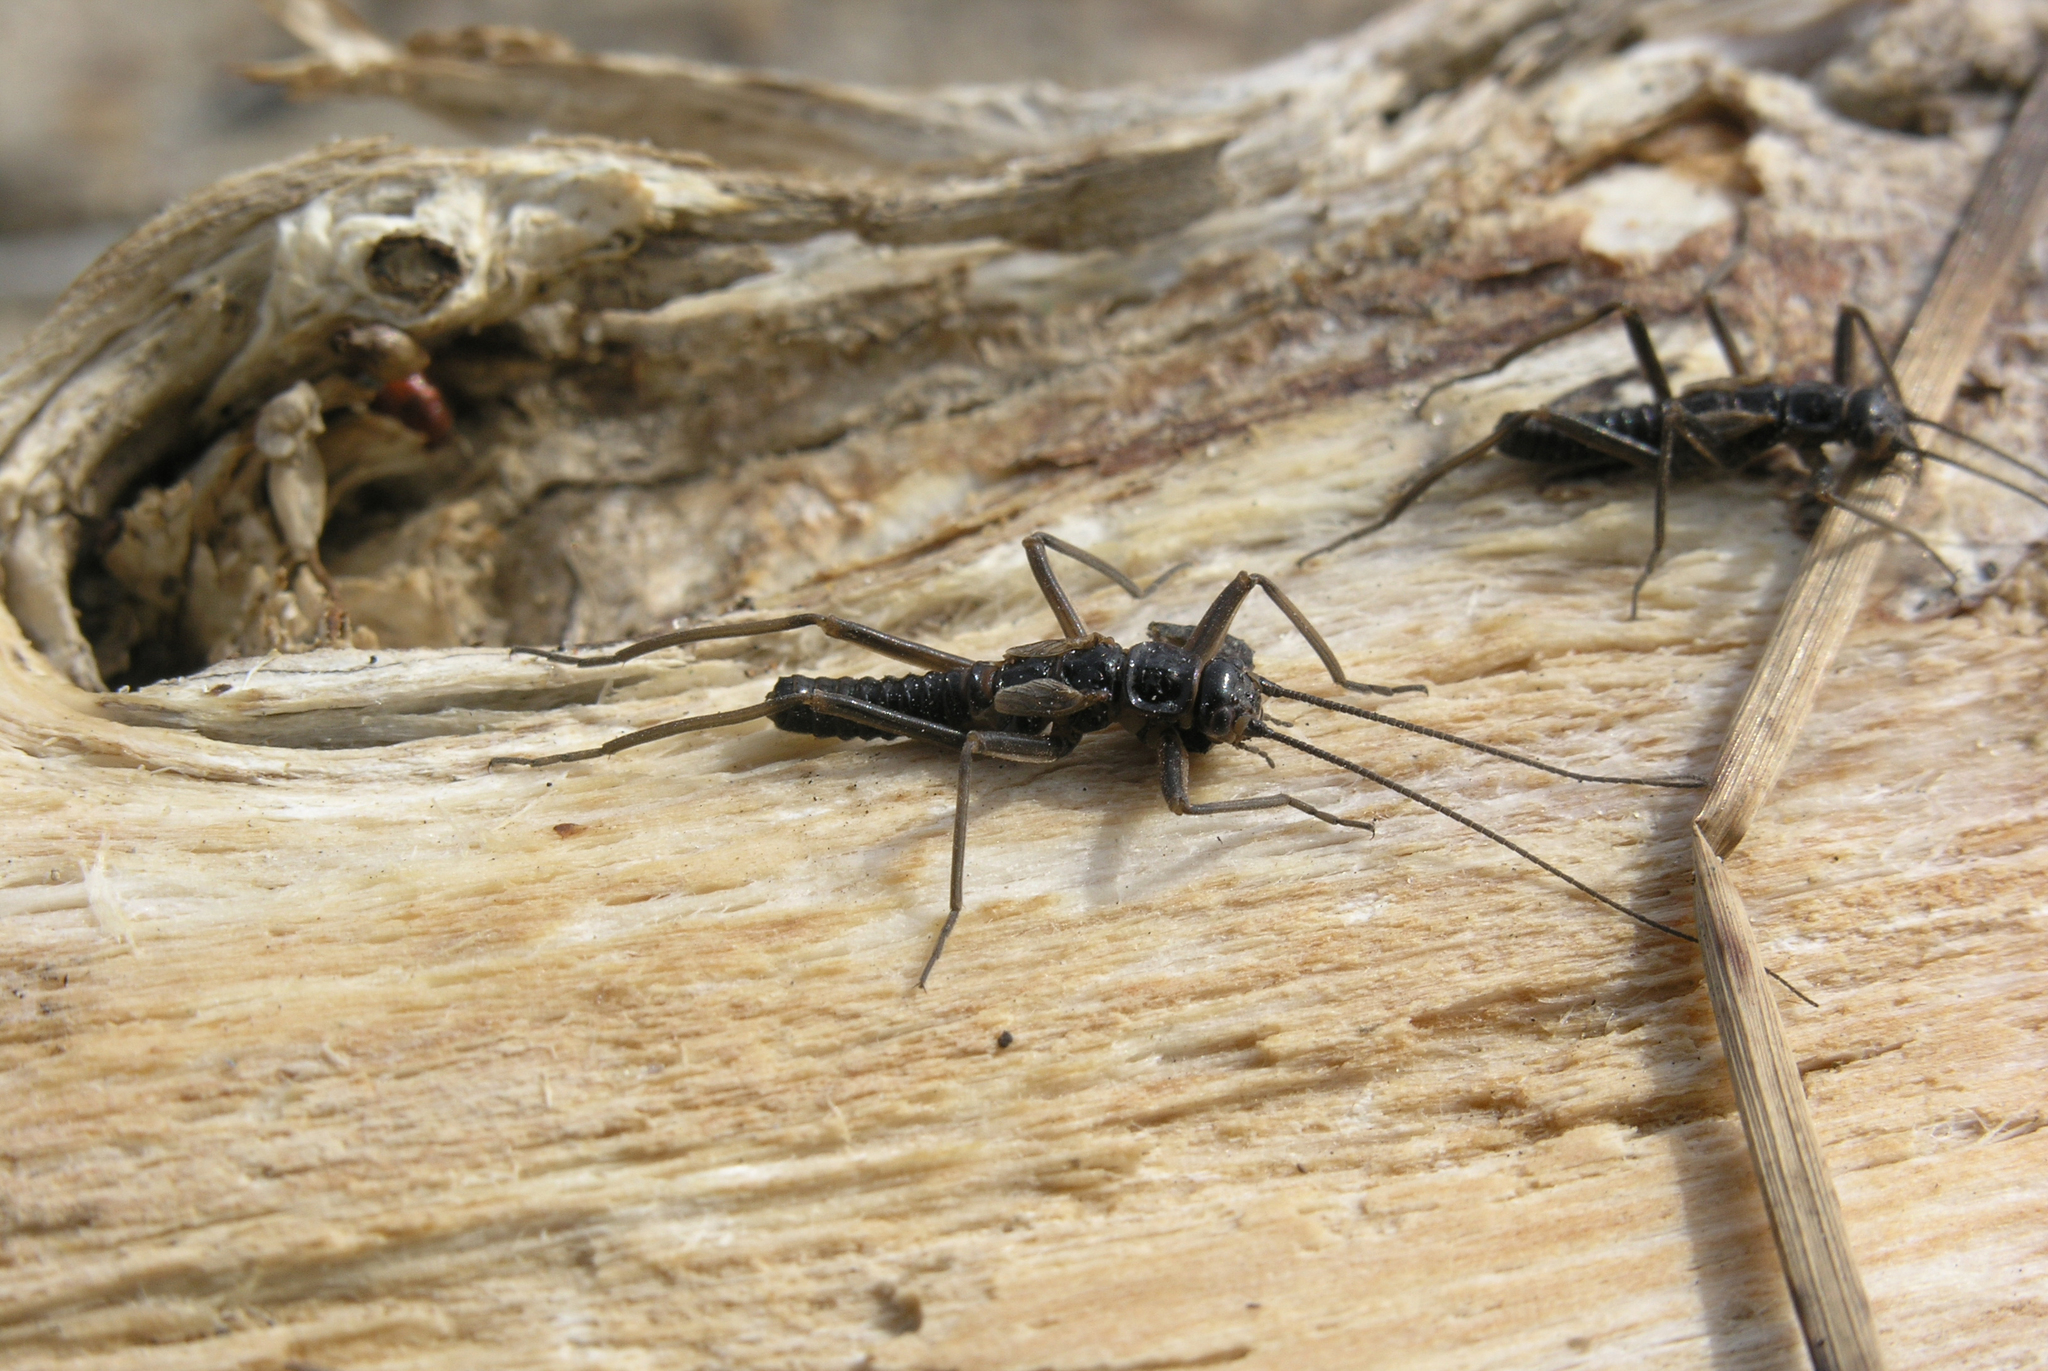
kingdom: Animalia
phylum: Arthropoda
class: Insecta
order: Plecoptera
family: Taeniopterygidae
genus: Taeniopteryx
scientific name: Taeniopteryx araneoides
